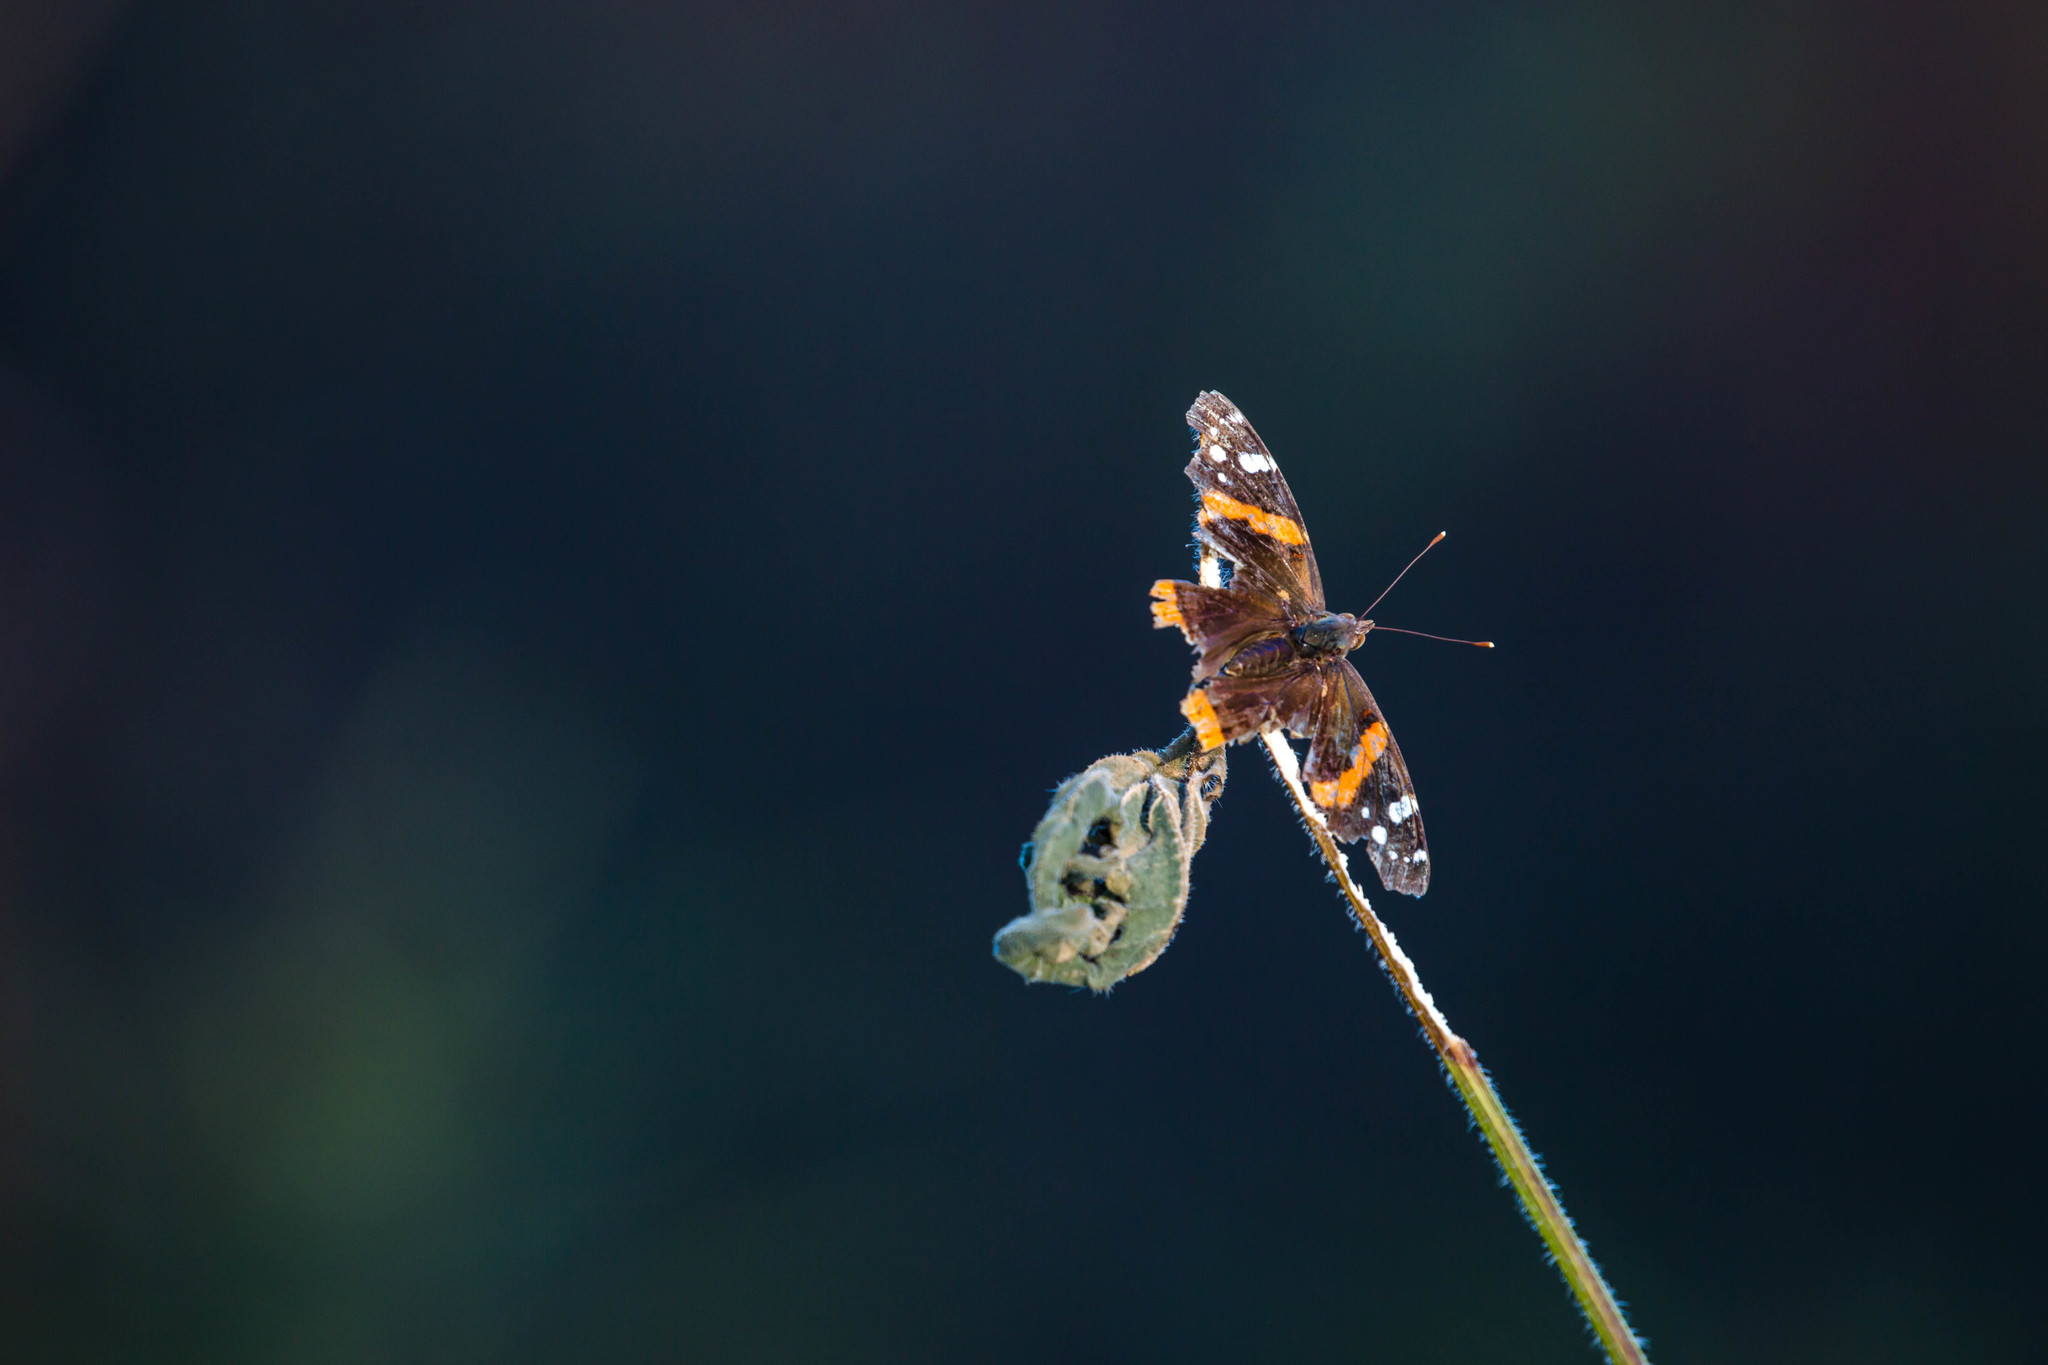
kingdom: Animalia
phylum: Arthropoda
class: Insecta
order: Lepidoptera
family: Nymphalidae
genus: Vanessa
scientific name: Vanessa atalanta
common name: Red admiral
